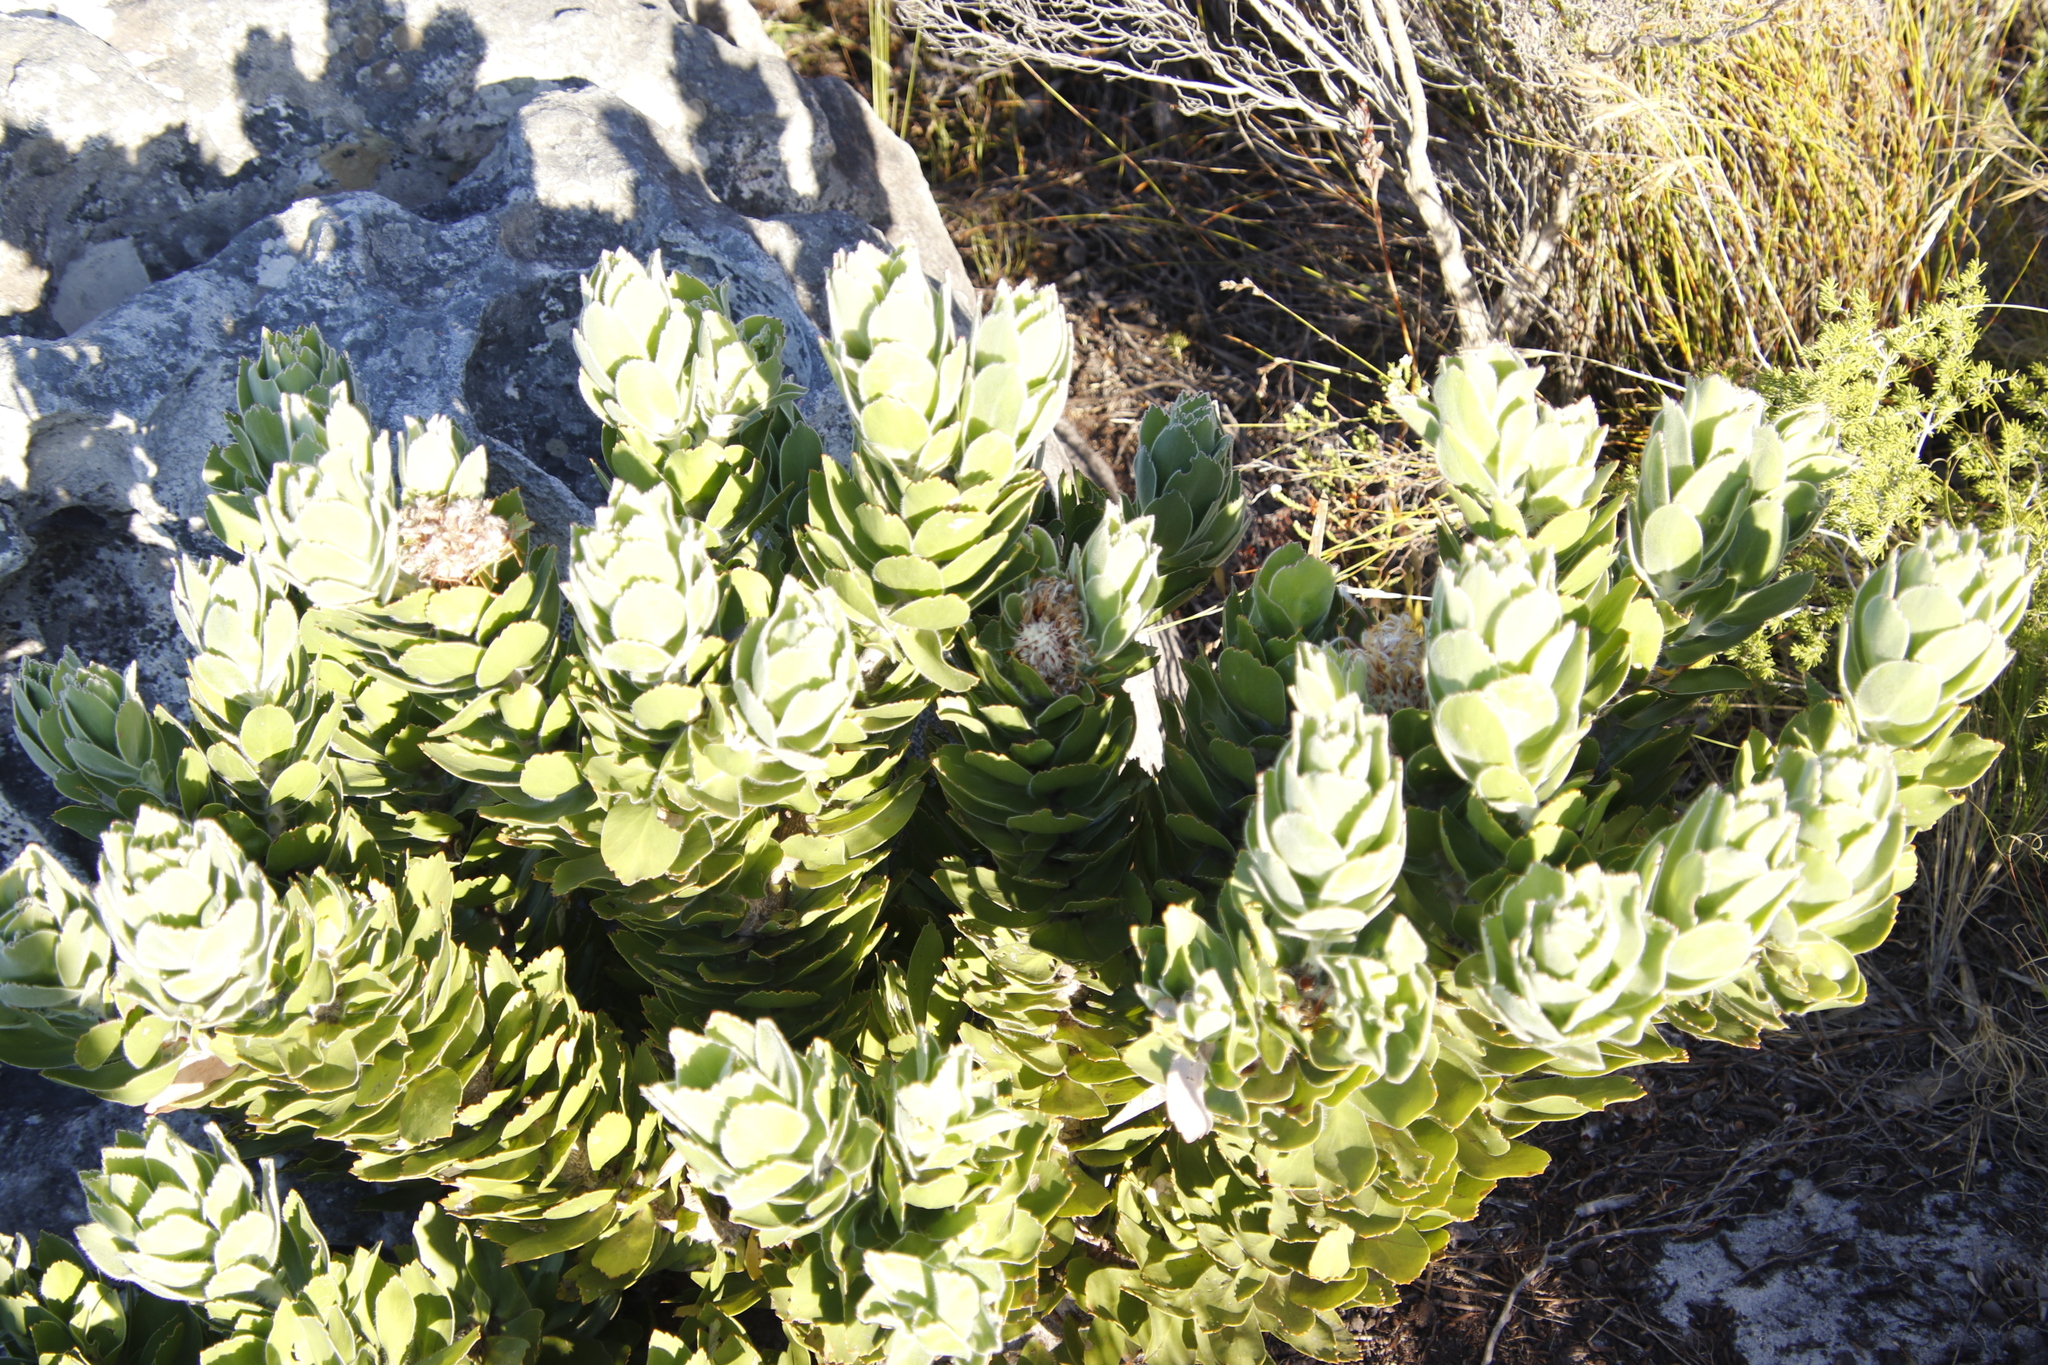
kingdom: Plantae
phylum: Tracheophyta
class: Magnoliopsida
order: Proteales
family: Proteaceae
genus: Leucospermum
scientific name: Leucospermum conocarpodendron
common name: Tree pincushion
